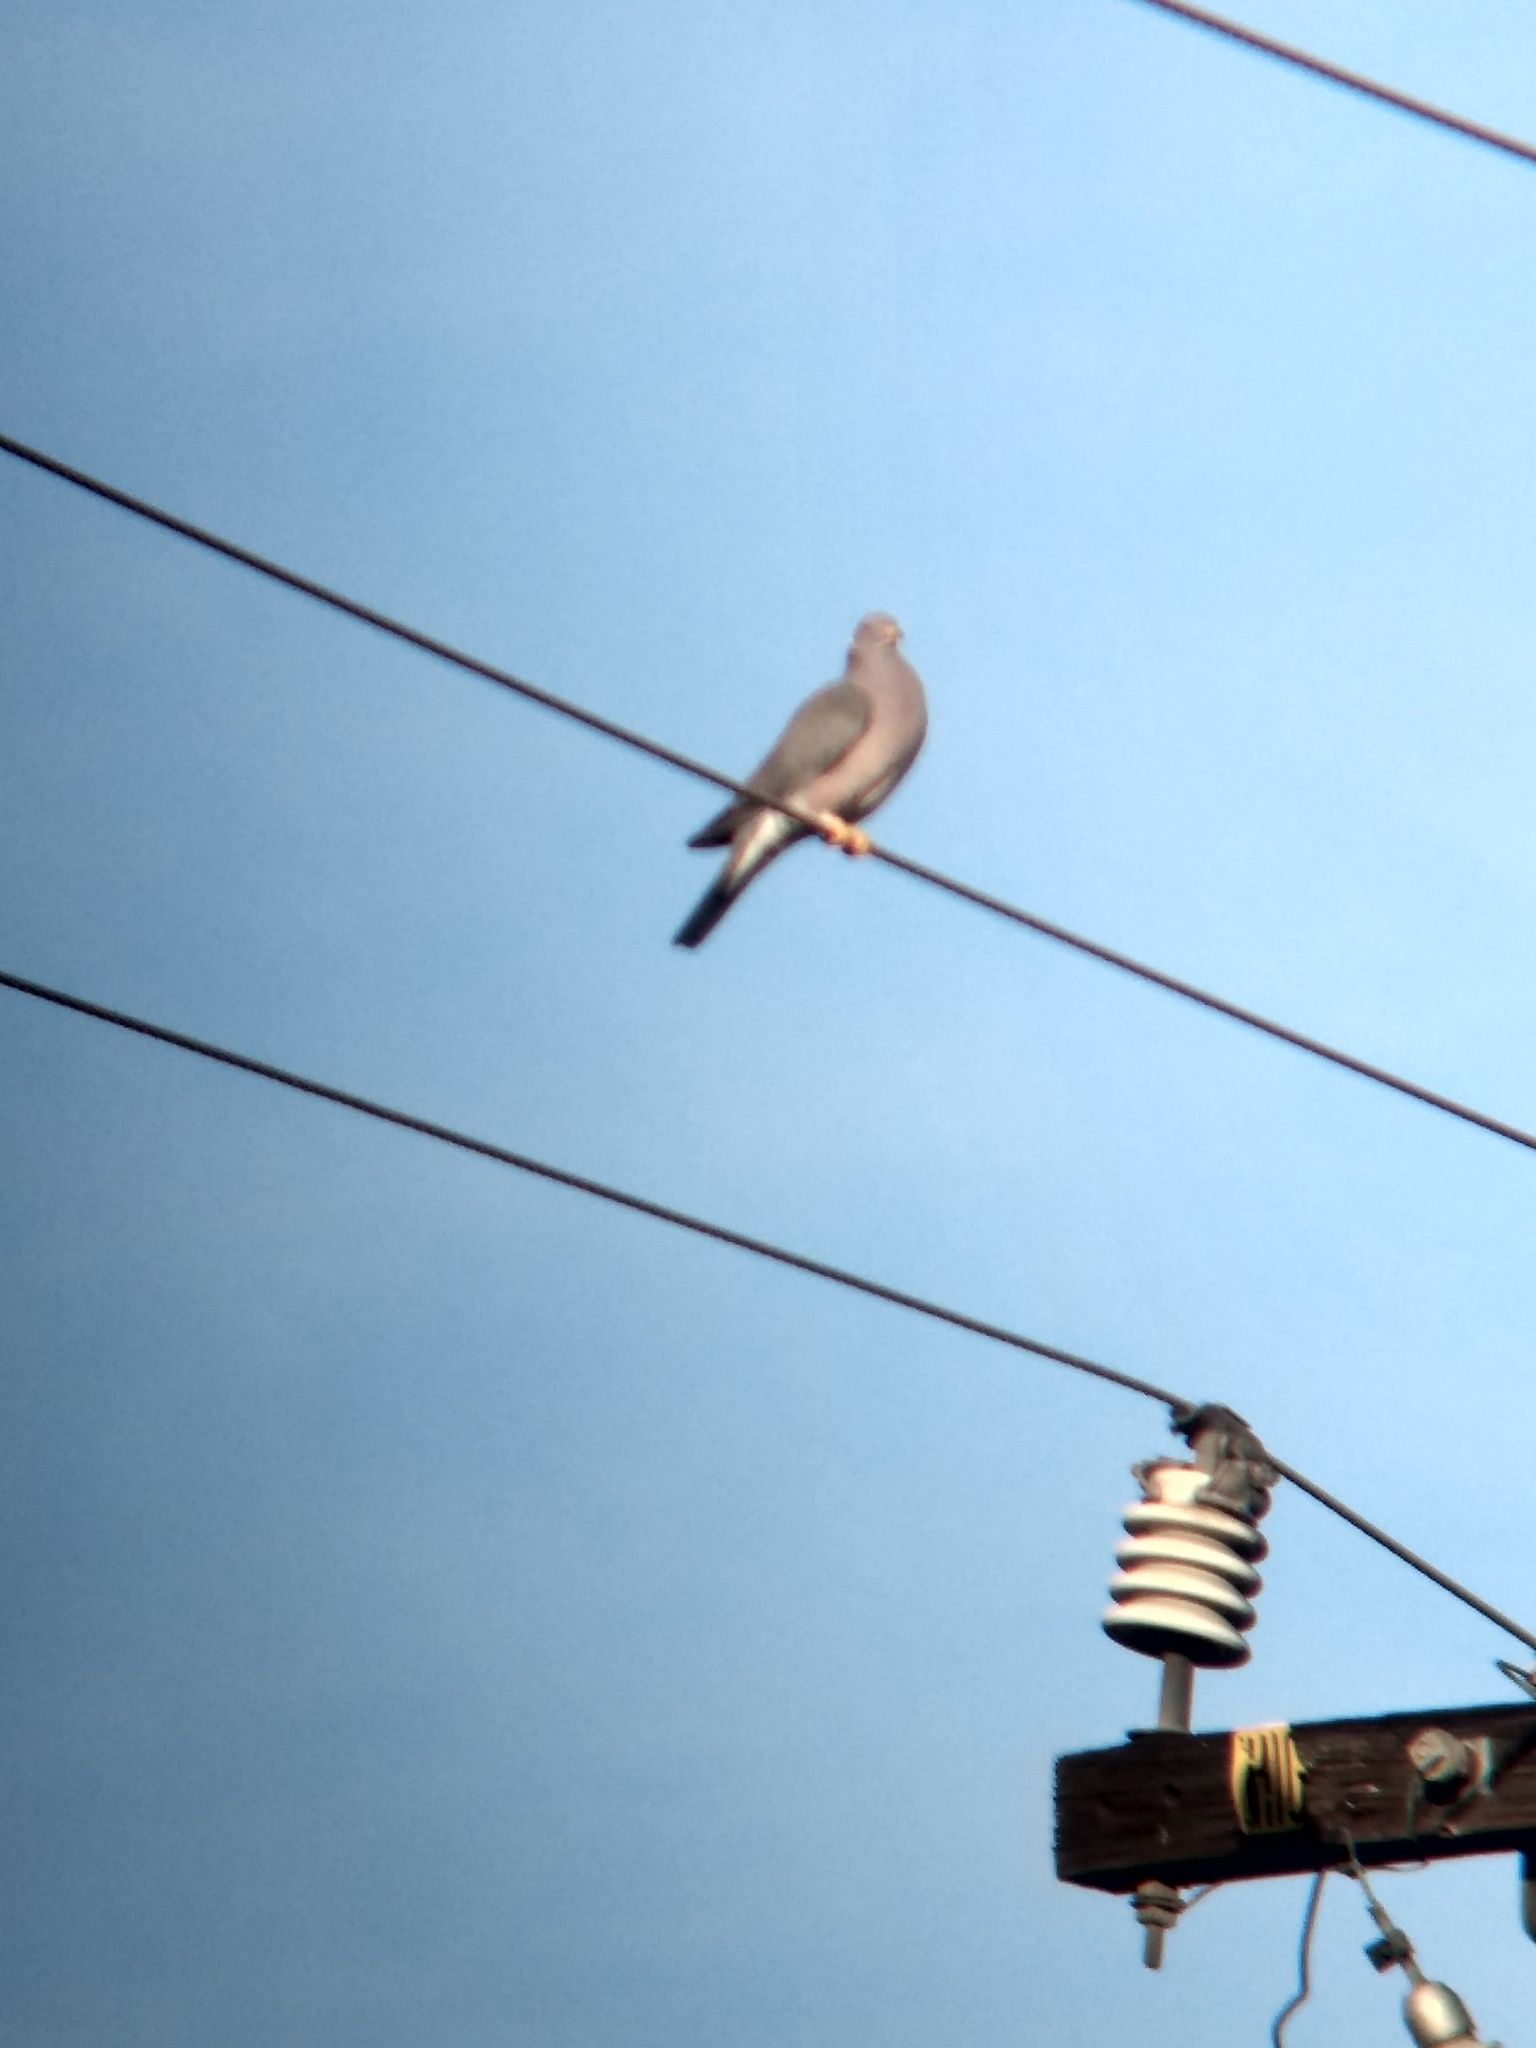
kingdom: Animalia
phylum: Chordata
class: Aves
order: Columbiformes
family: Columbidae
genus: Patagioenas
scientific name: Patagioenas fasciata
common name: Band-tailed pigeon
